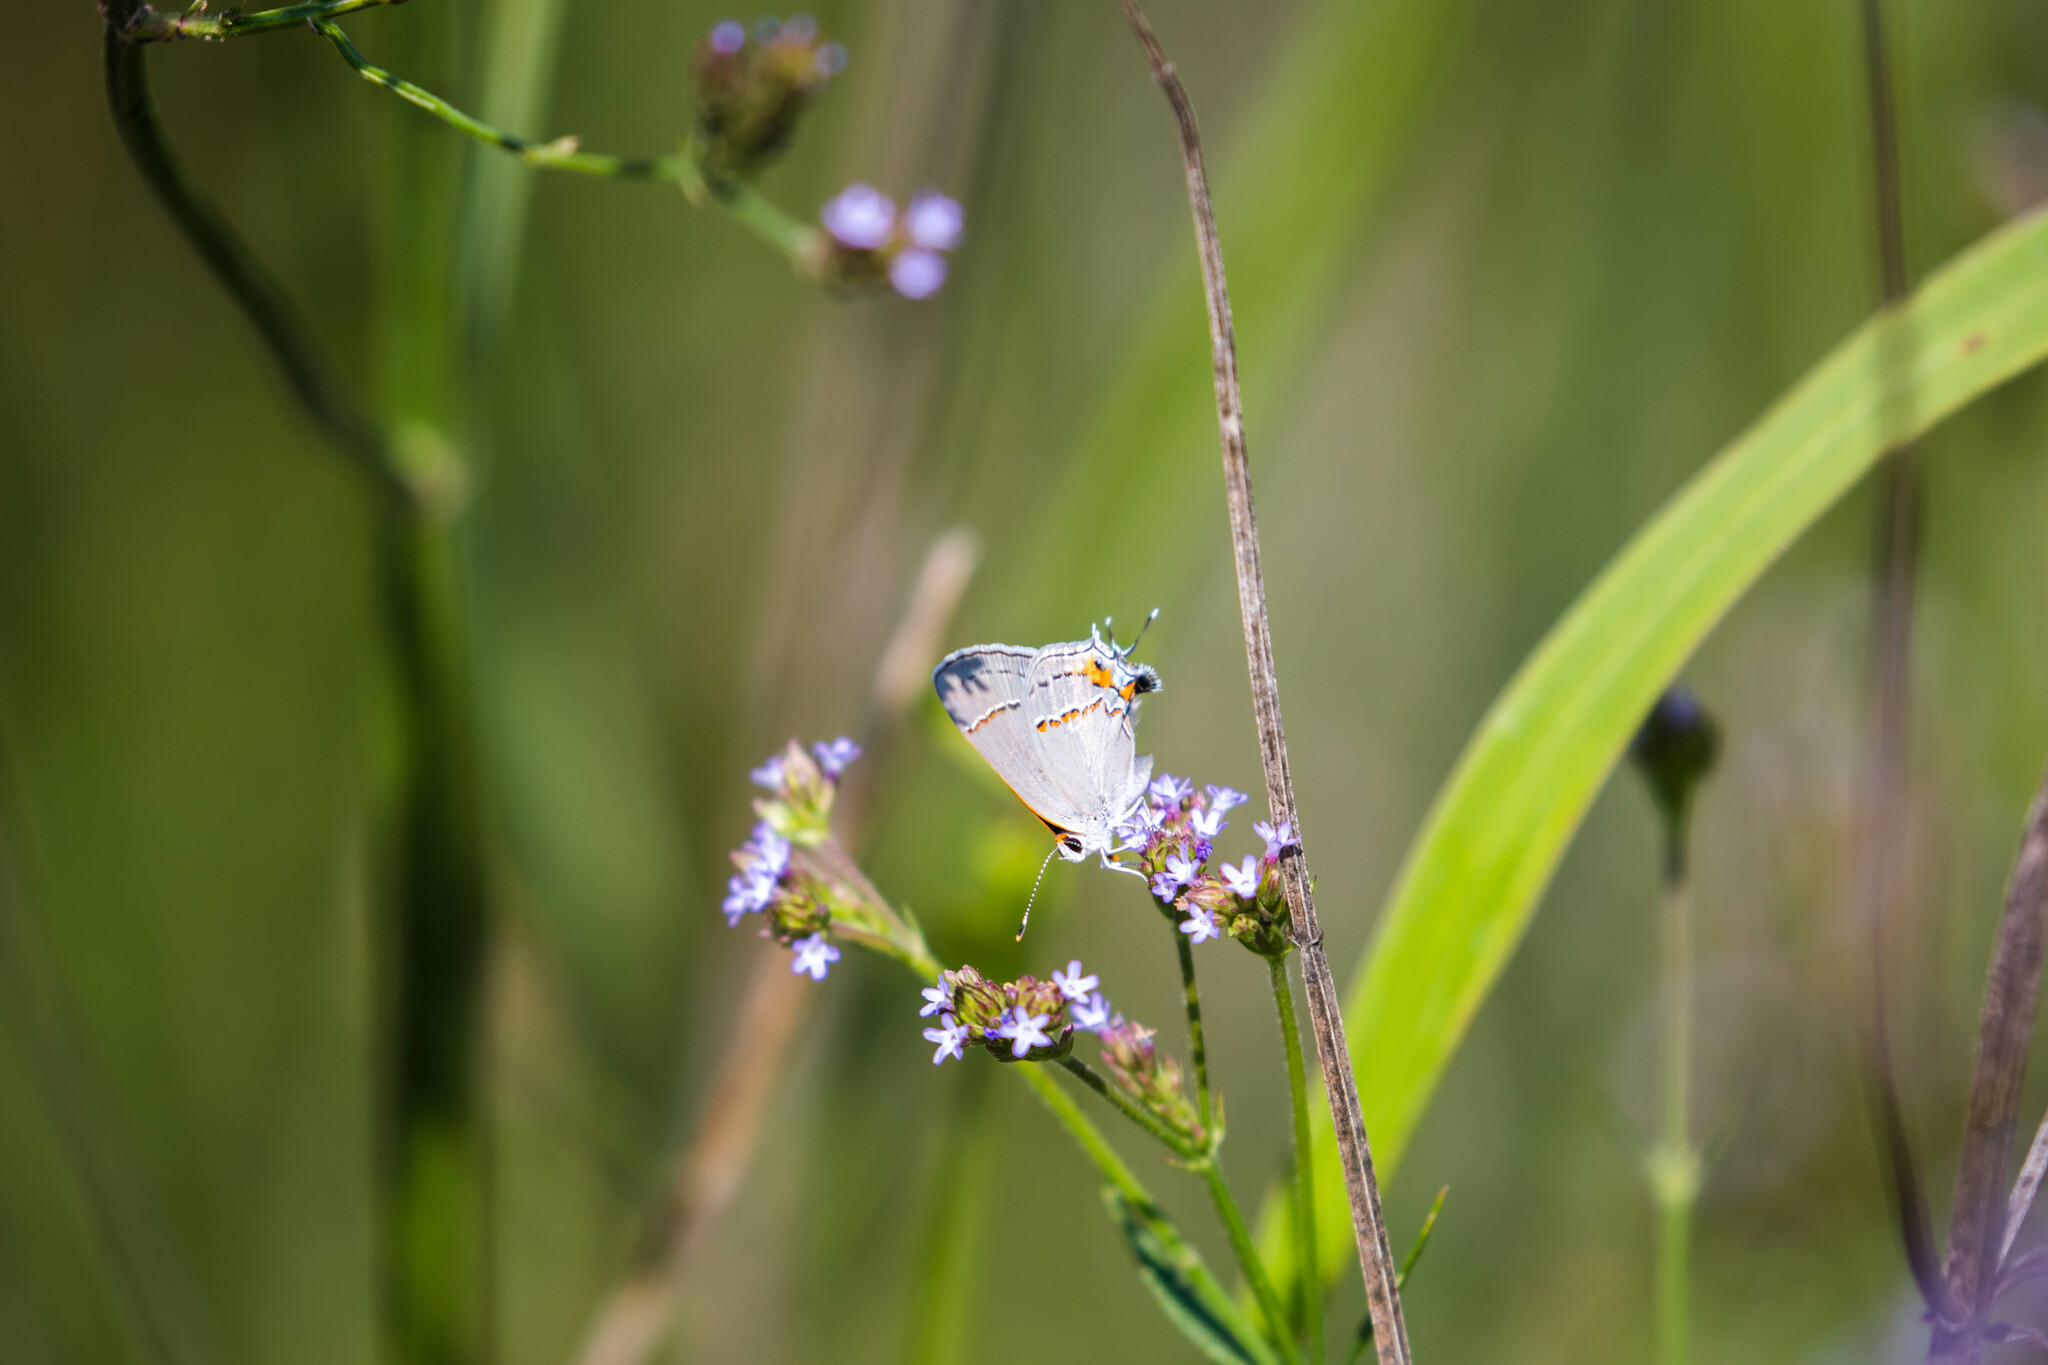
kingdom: Animalia
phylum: Arthropoda
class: Insecta
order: Lepidoptera
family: Lycaenidae
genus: Strymon
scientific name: Strymon melinus
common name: Gray hairstreak
